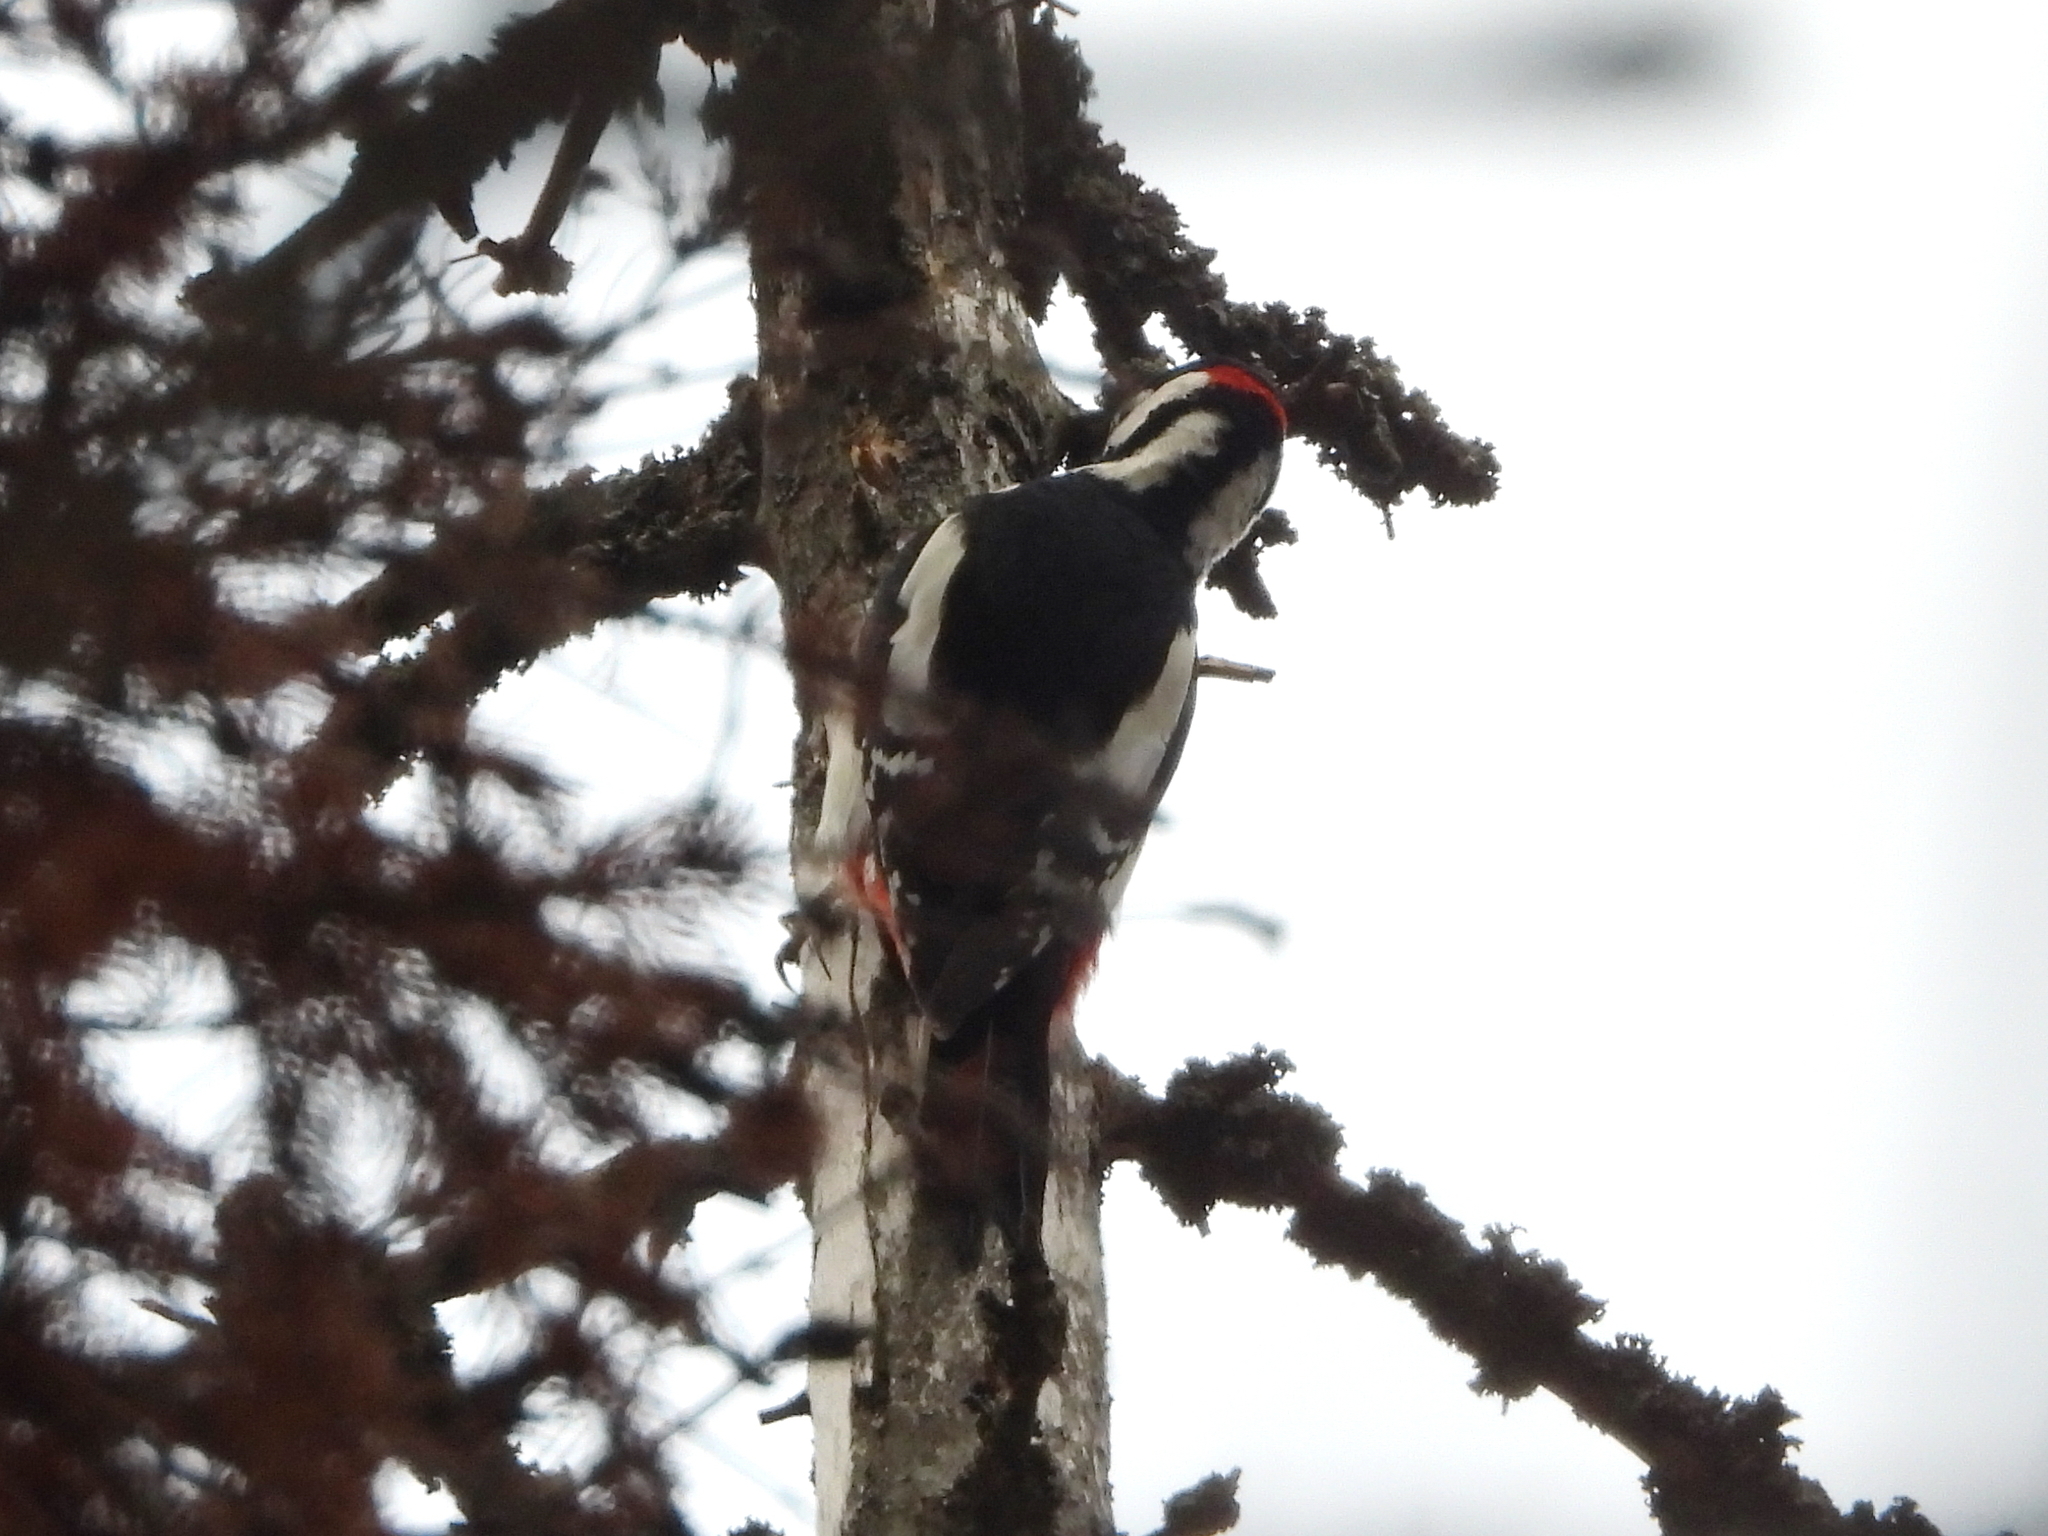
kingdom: Animalia
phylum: Chordata
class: Aves
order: Piciformes
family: Picidae
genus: Dendrocopos
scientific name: Dendrocopos major
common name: Great spotted woodpecker
